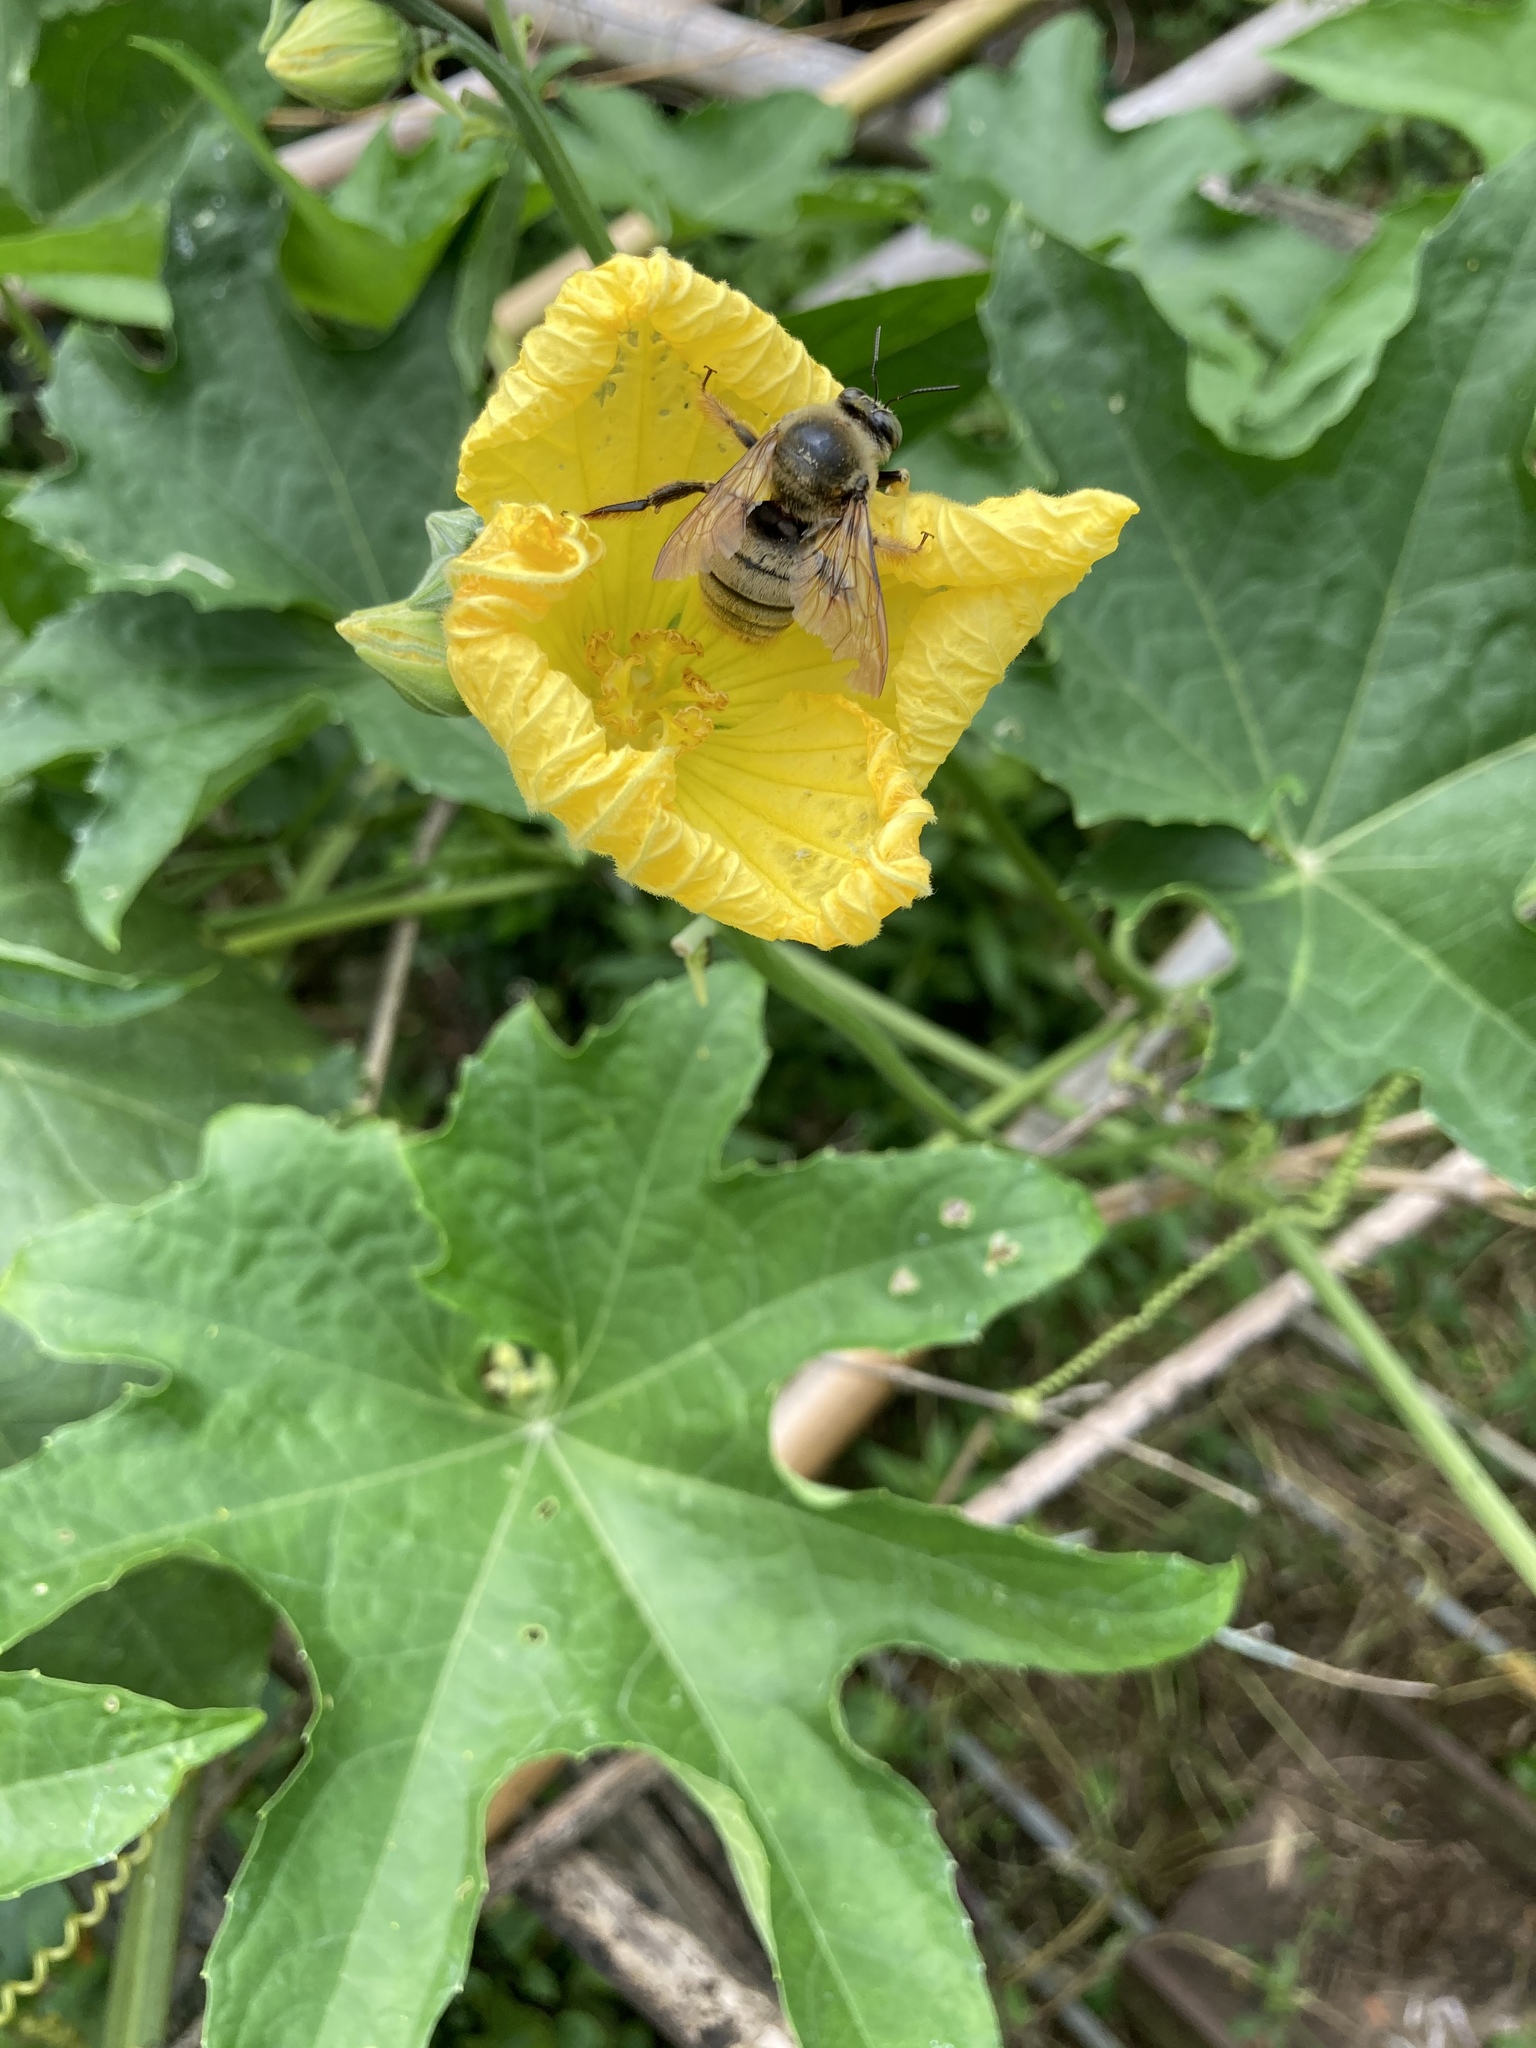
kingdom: Animalia
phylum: Arthropoda
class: Insecta
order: Hymenoptera
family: Apidae
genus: Xylocopa
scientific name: Xylocopa dejeanii
